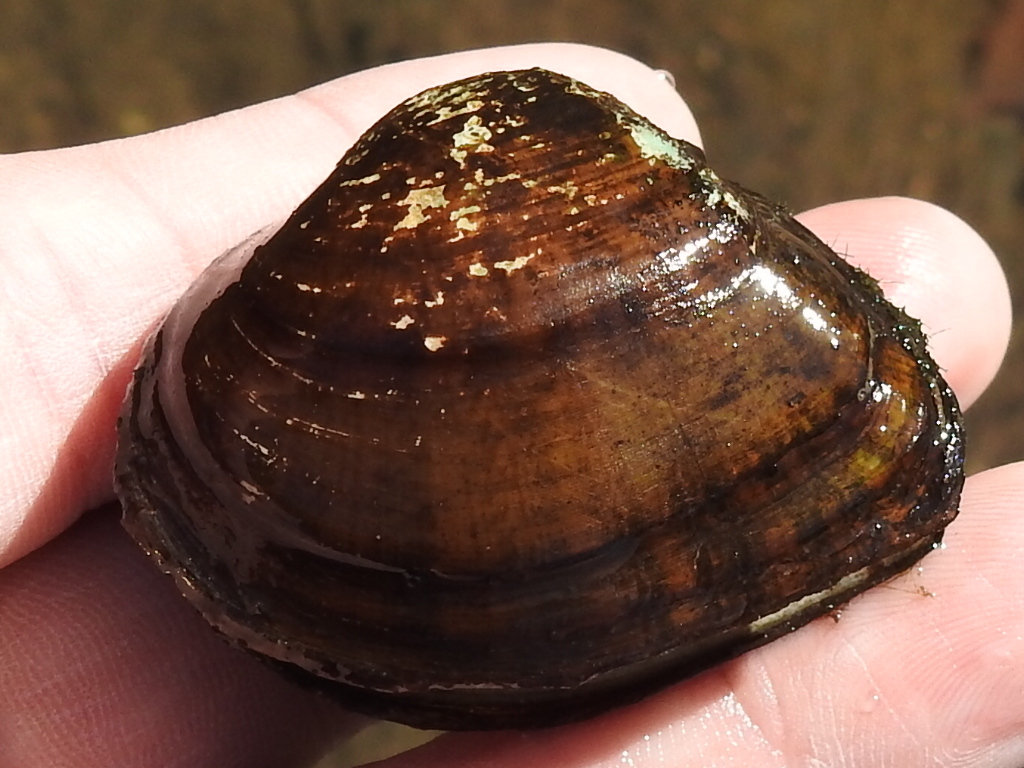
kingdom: Animalia
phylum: Mollusca
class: Bivalvia
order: Unionida
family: Unionidae
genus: Truncilla
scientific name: Truncilla truncata
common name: Deertoe
